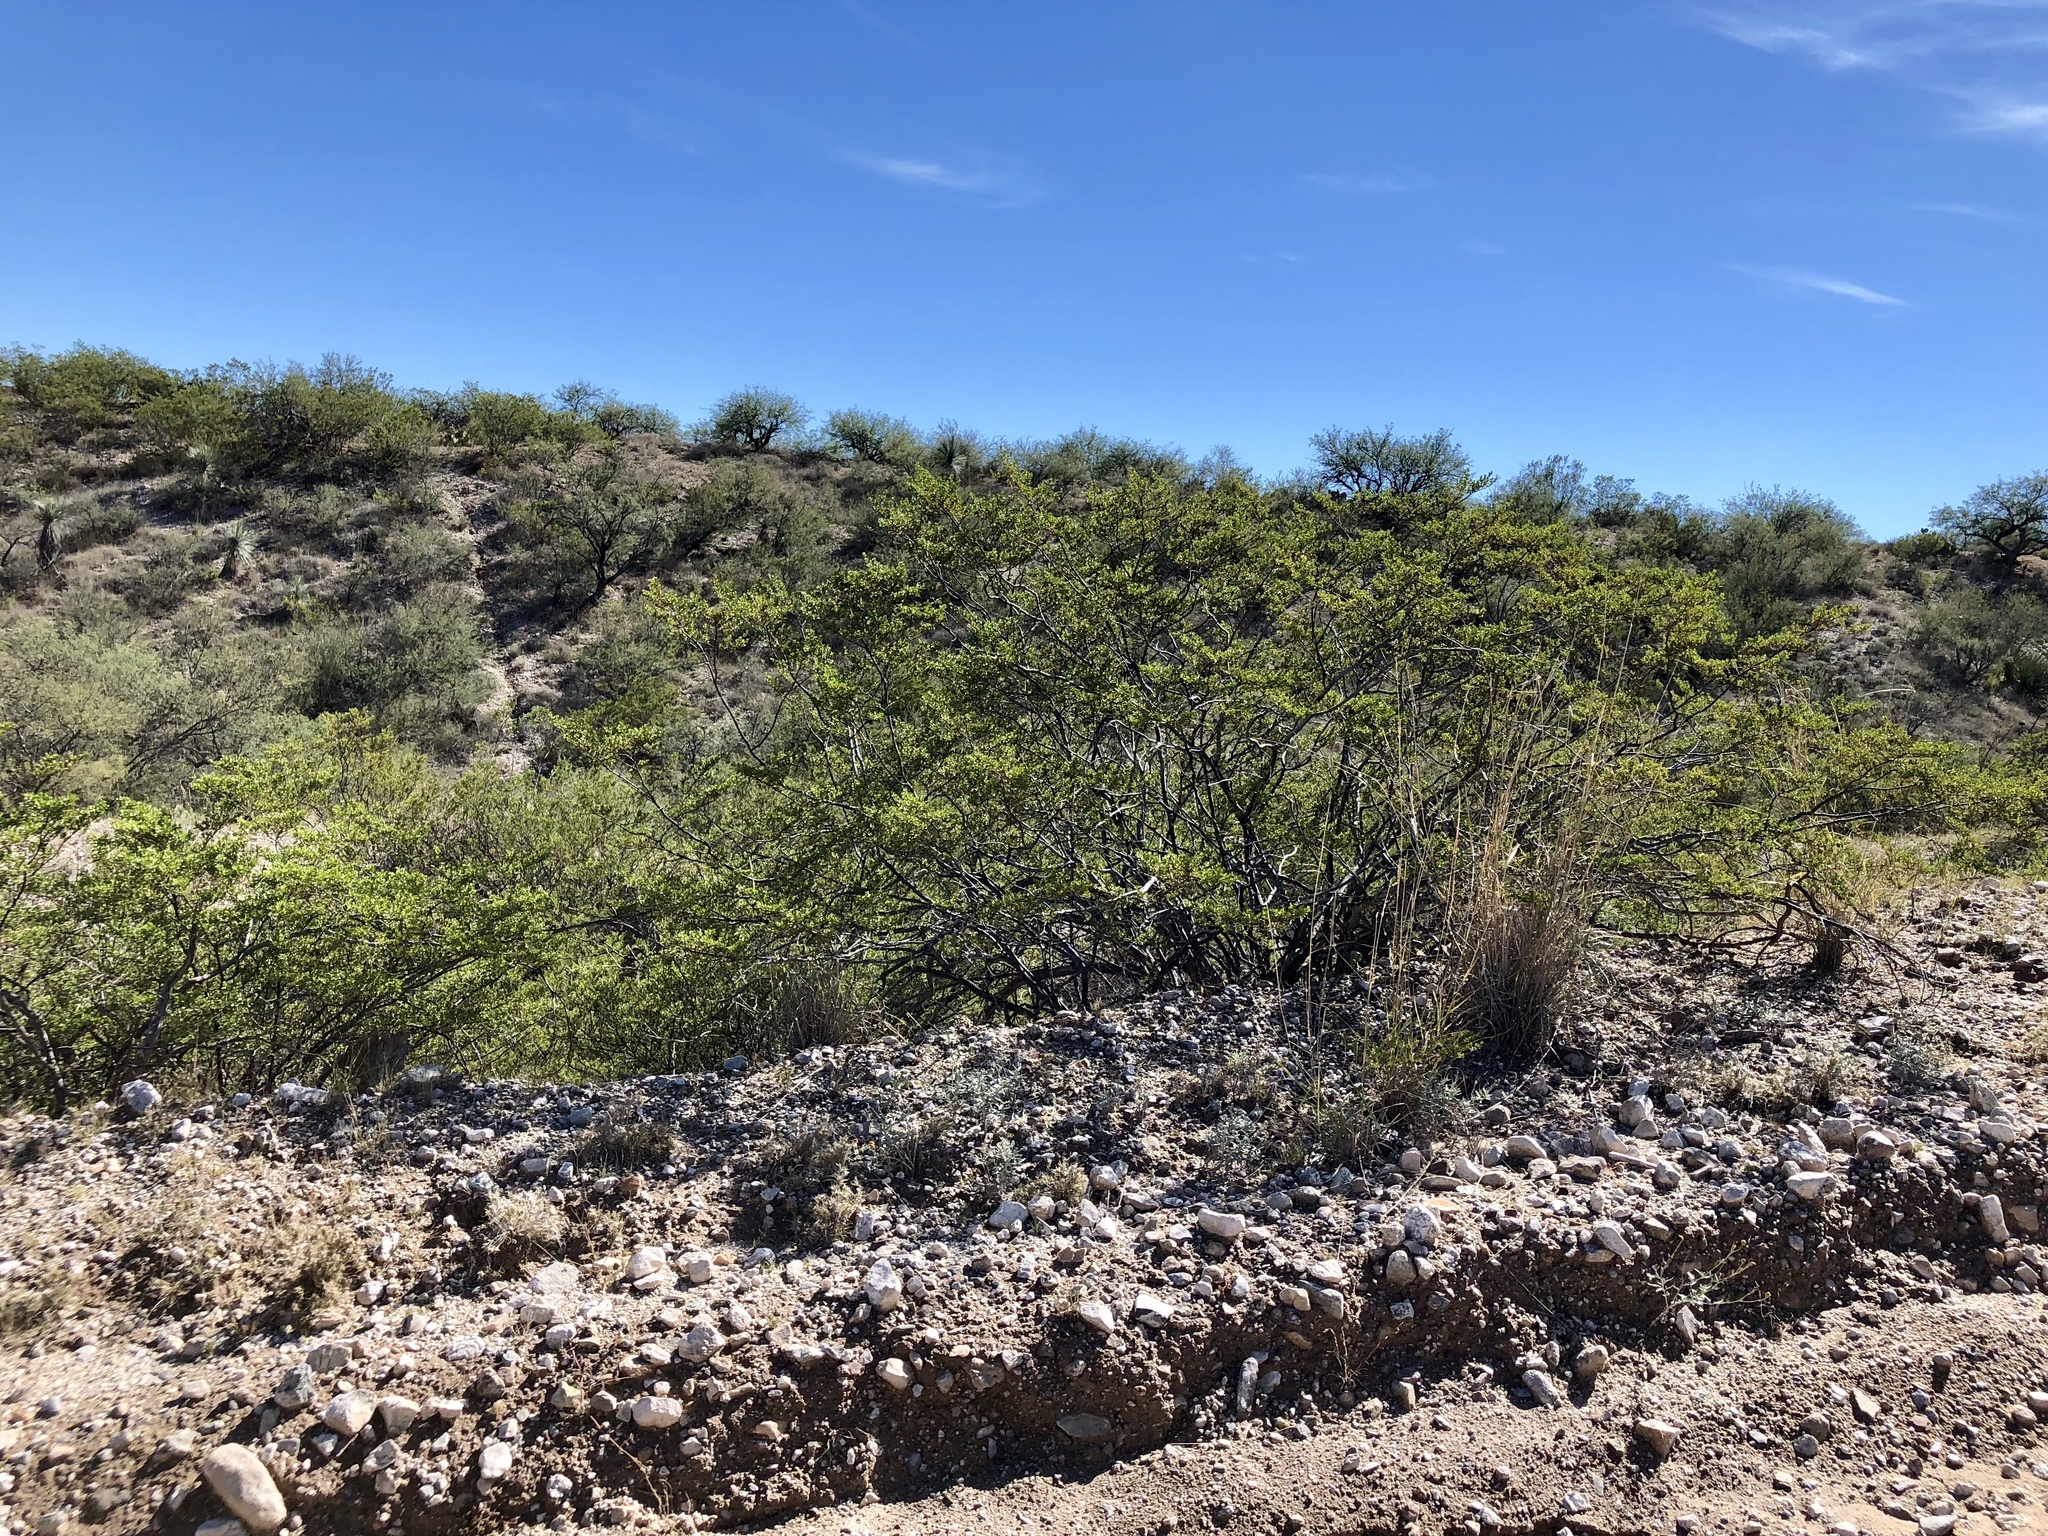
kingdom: Plantae
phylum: Tracheophyta
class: Magnoliopsida
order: Zygophyllales
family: Zygophyllaceae
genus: Larrea
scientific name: Larrea tridentata
